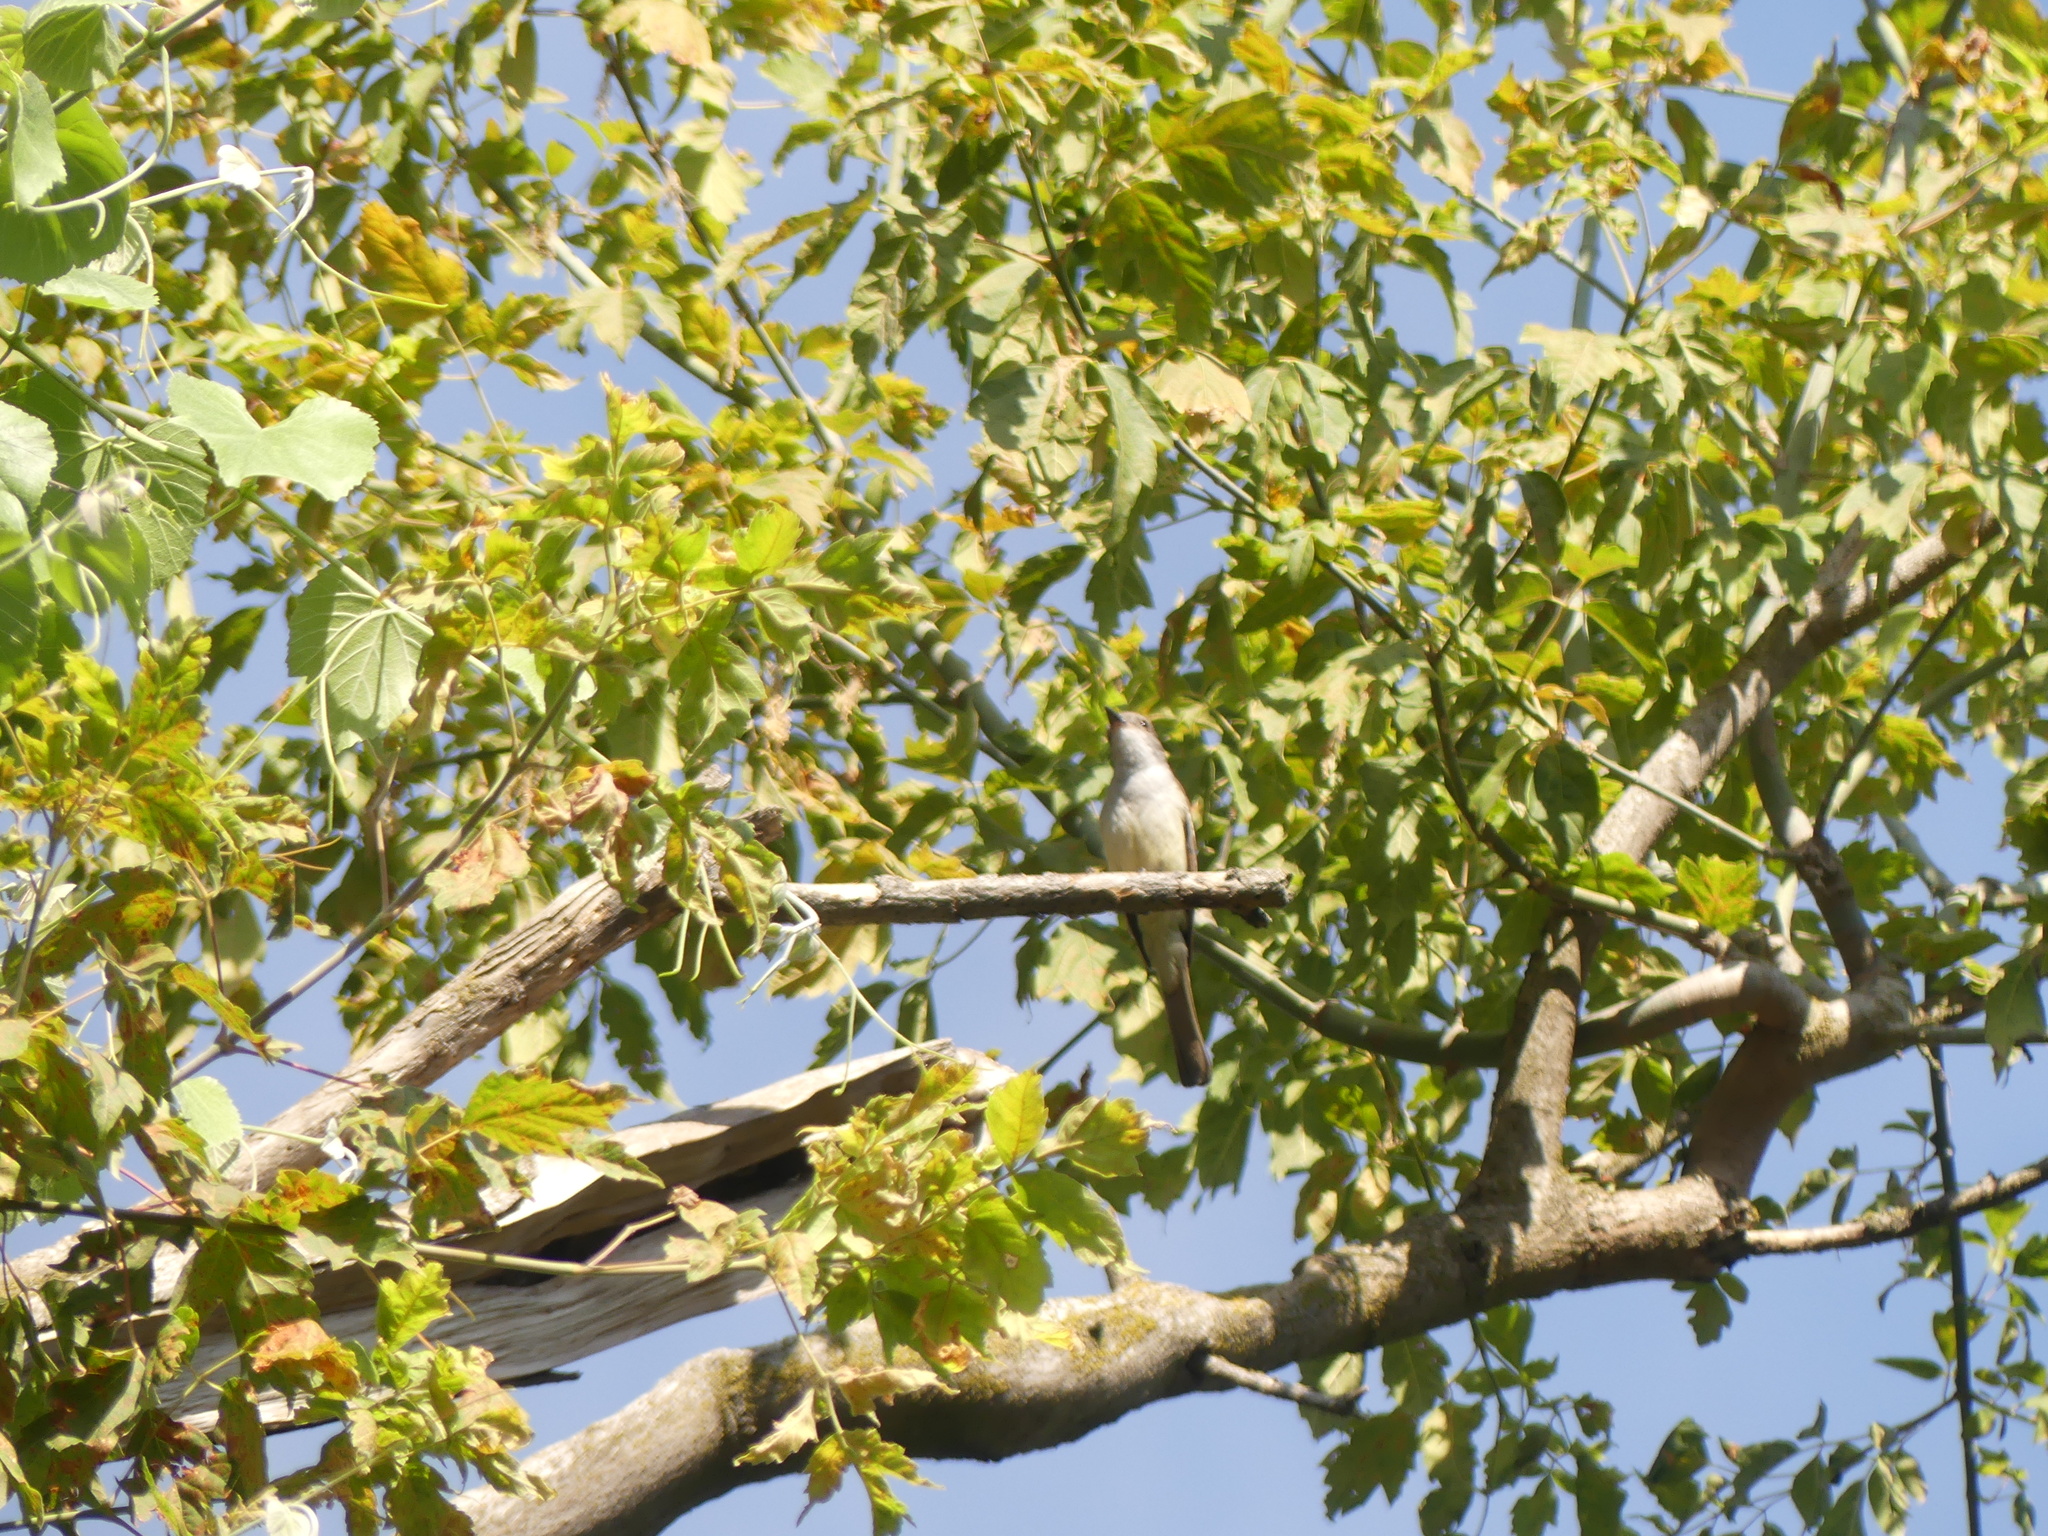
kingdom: Animalia
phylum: Chordata
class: Aves
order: Passeriformes
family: Tyrannidae
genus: Myiarchus
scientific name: Myiarchus cinerascens
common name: Ash-throated flycatcher
